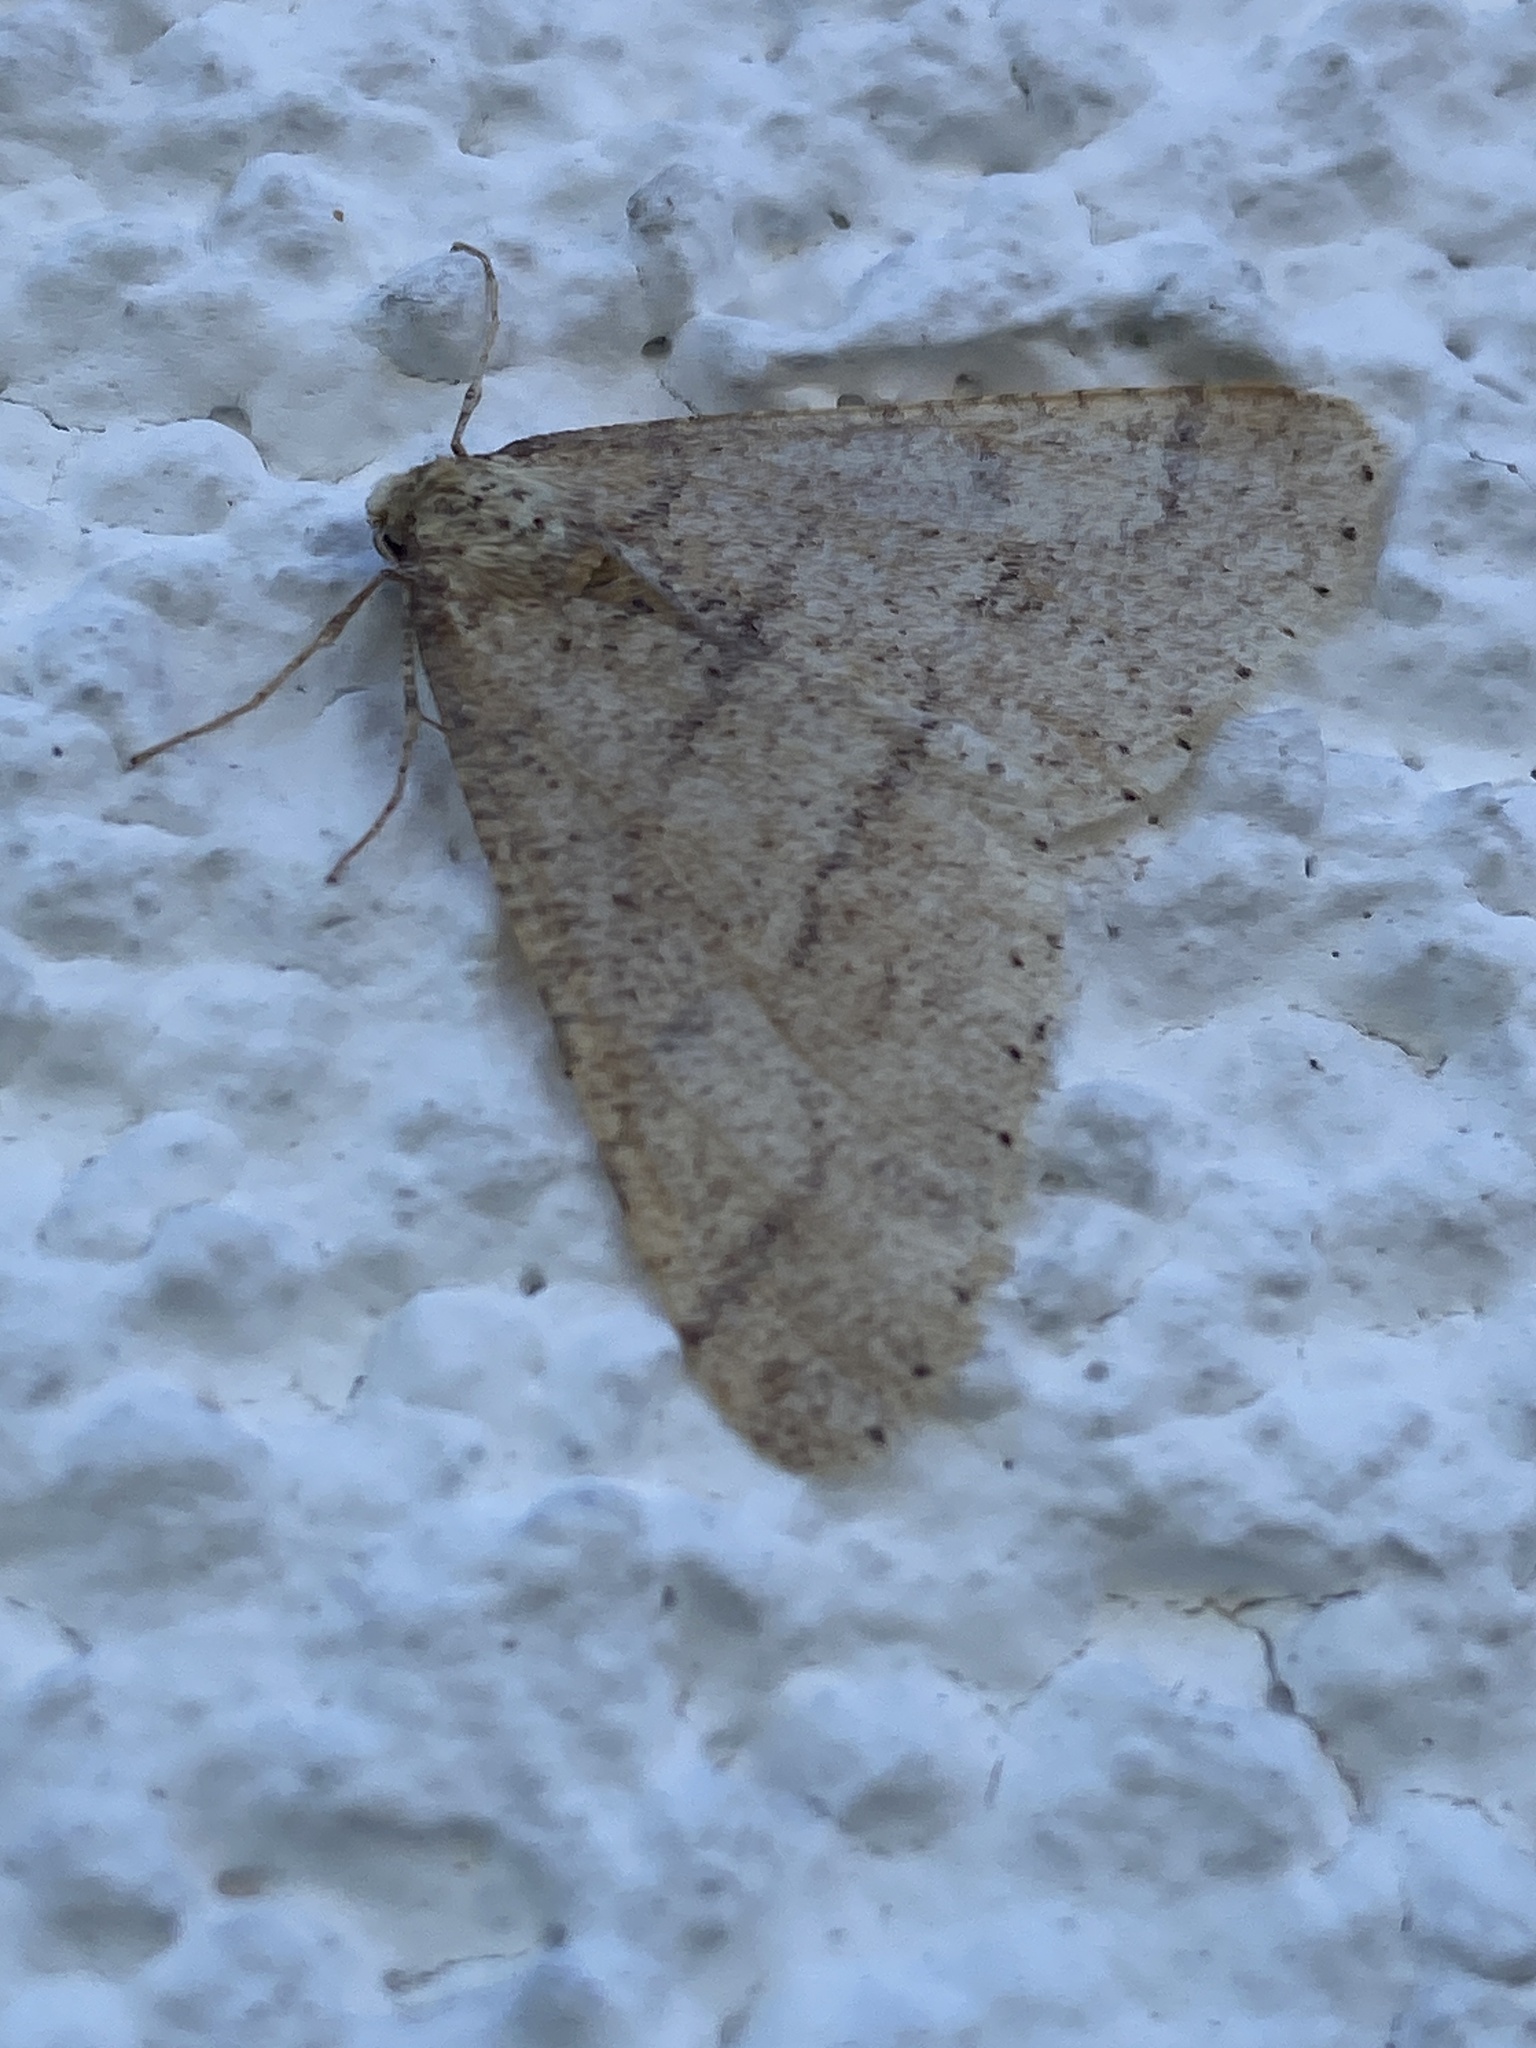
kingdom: Animalia
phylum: Arthropoda
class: Insecta
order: Lepidoptera
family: Geometridae
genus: Agriopis
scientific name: Agriopis marginaria
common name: Dotted border
